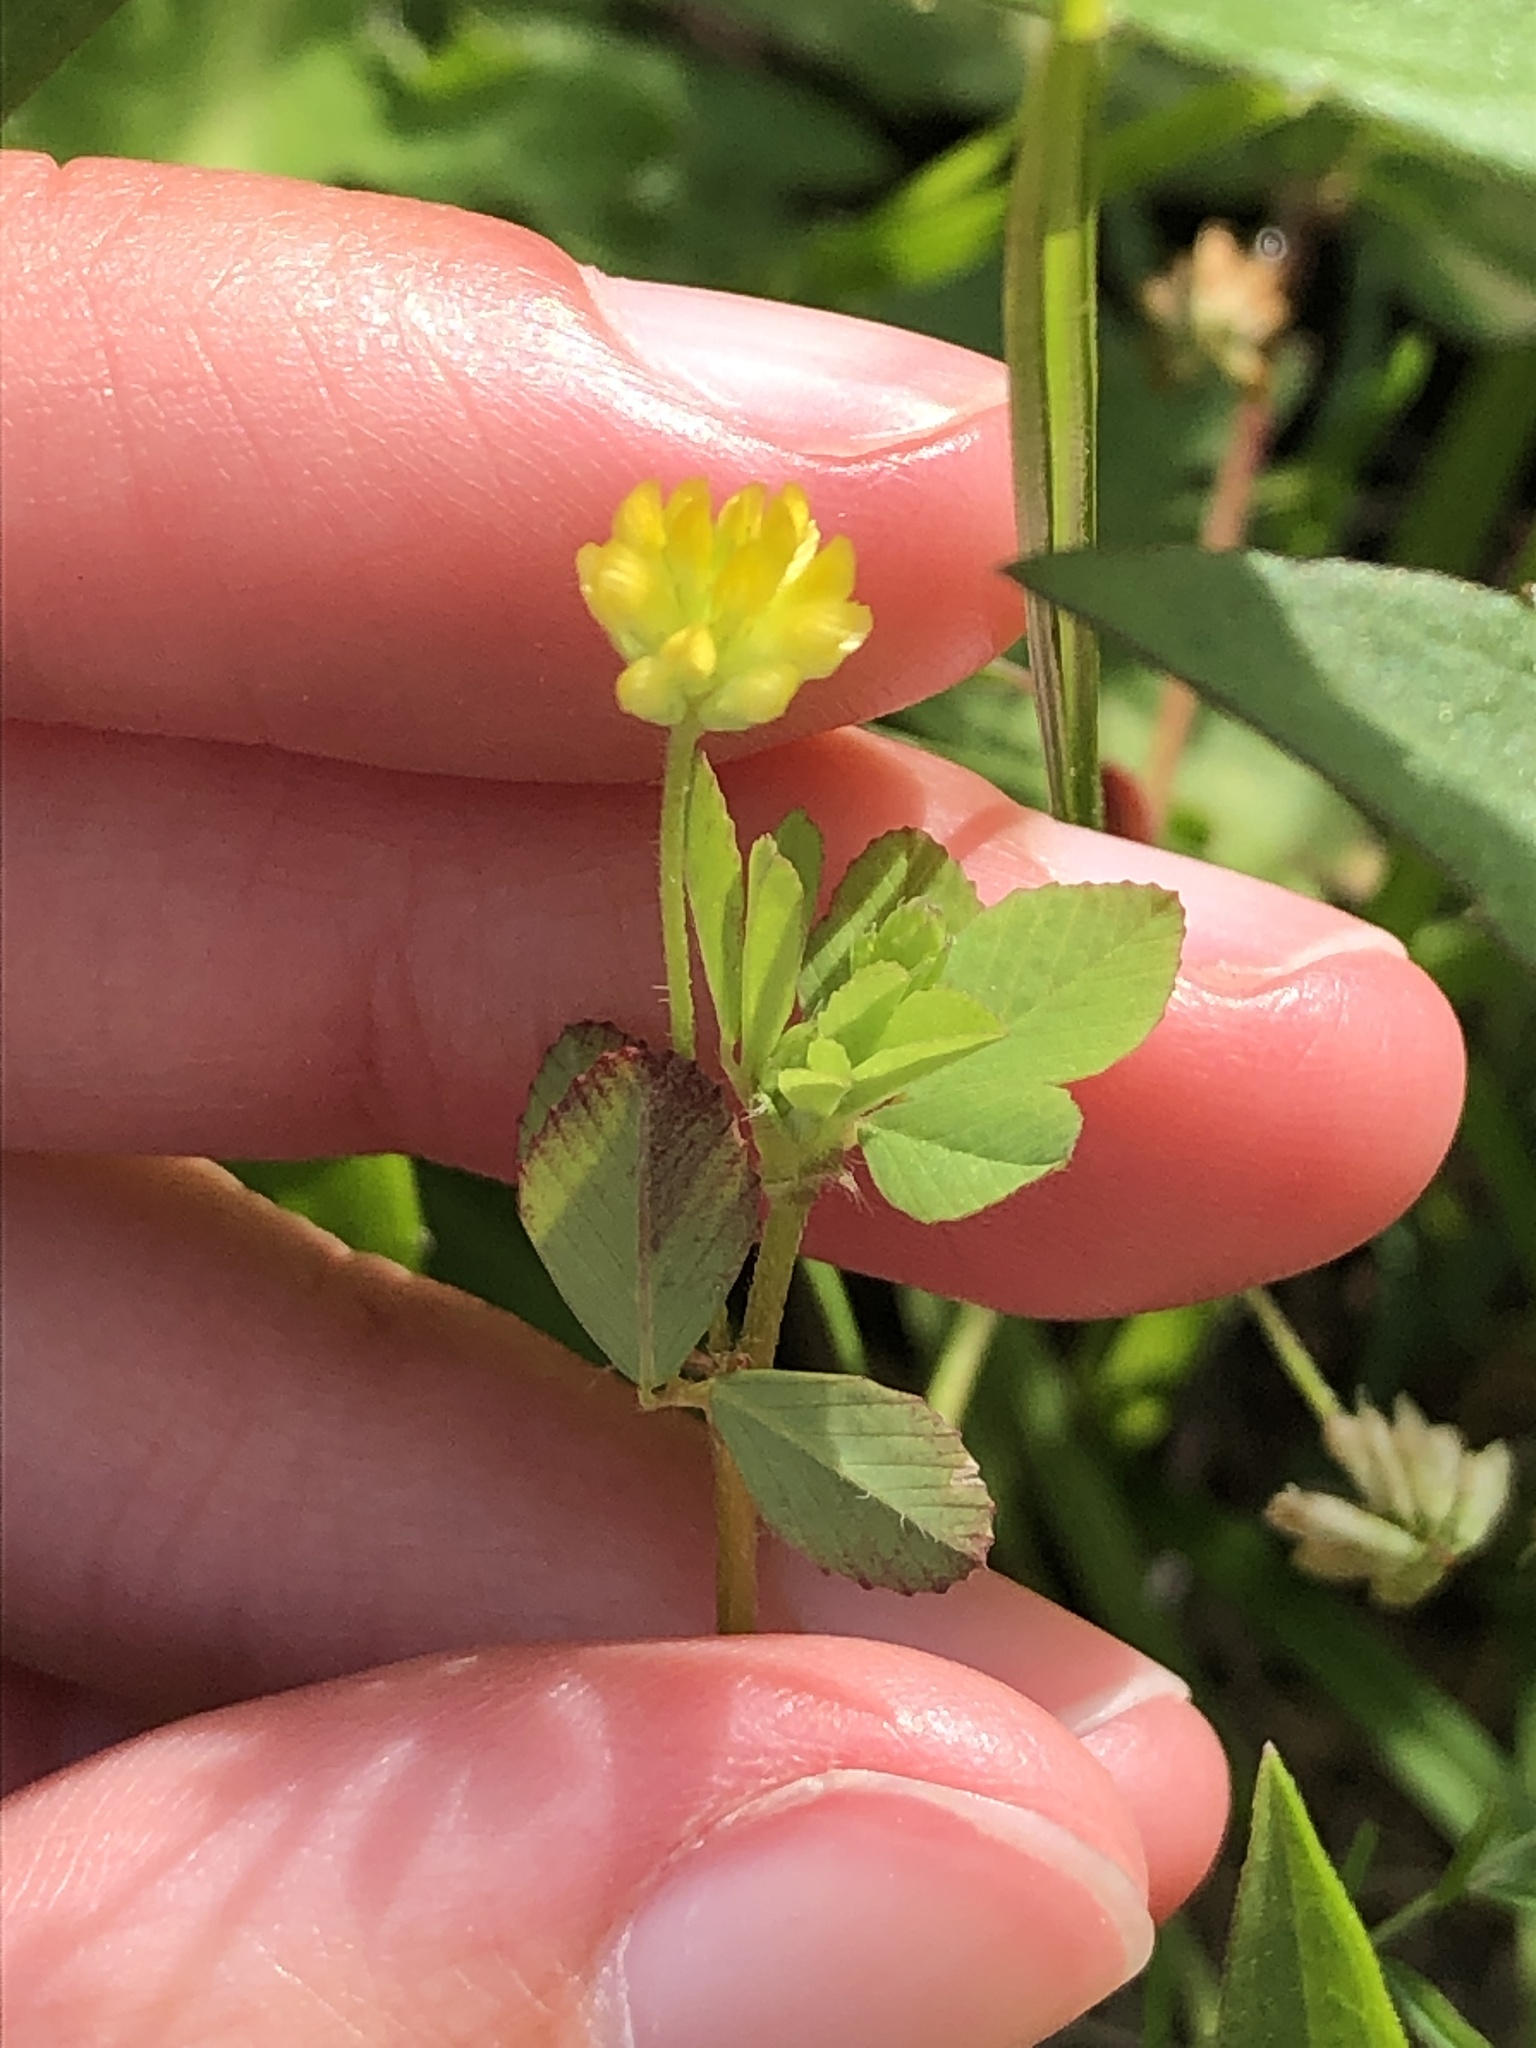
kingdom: Plantae
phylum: Tracheophyta
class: Magnoliopsida
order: Fabales
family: Fabaceae
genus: Trifolium
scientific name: Trifolium dubium
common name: Suckling clover
